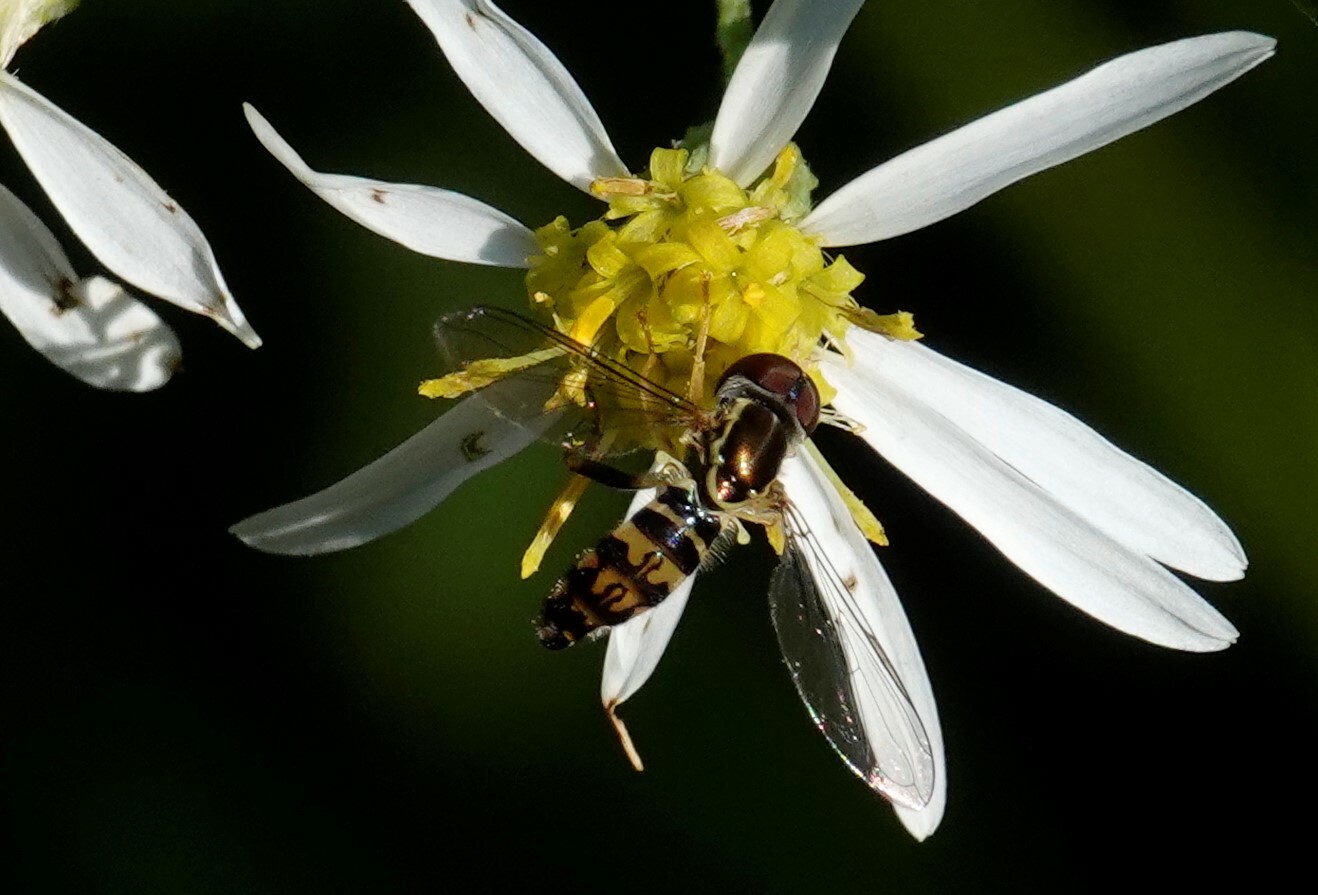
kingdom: Animalia
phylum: Arthropoda
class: Insecta
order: Diptera
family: Syrphidae
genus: Toxomerus
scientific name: Toxomerus geminatus
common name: Eastern calligrapher
